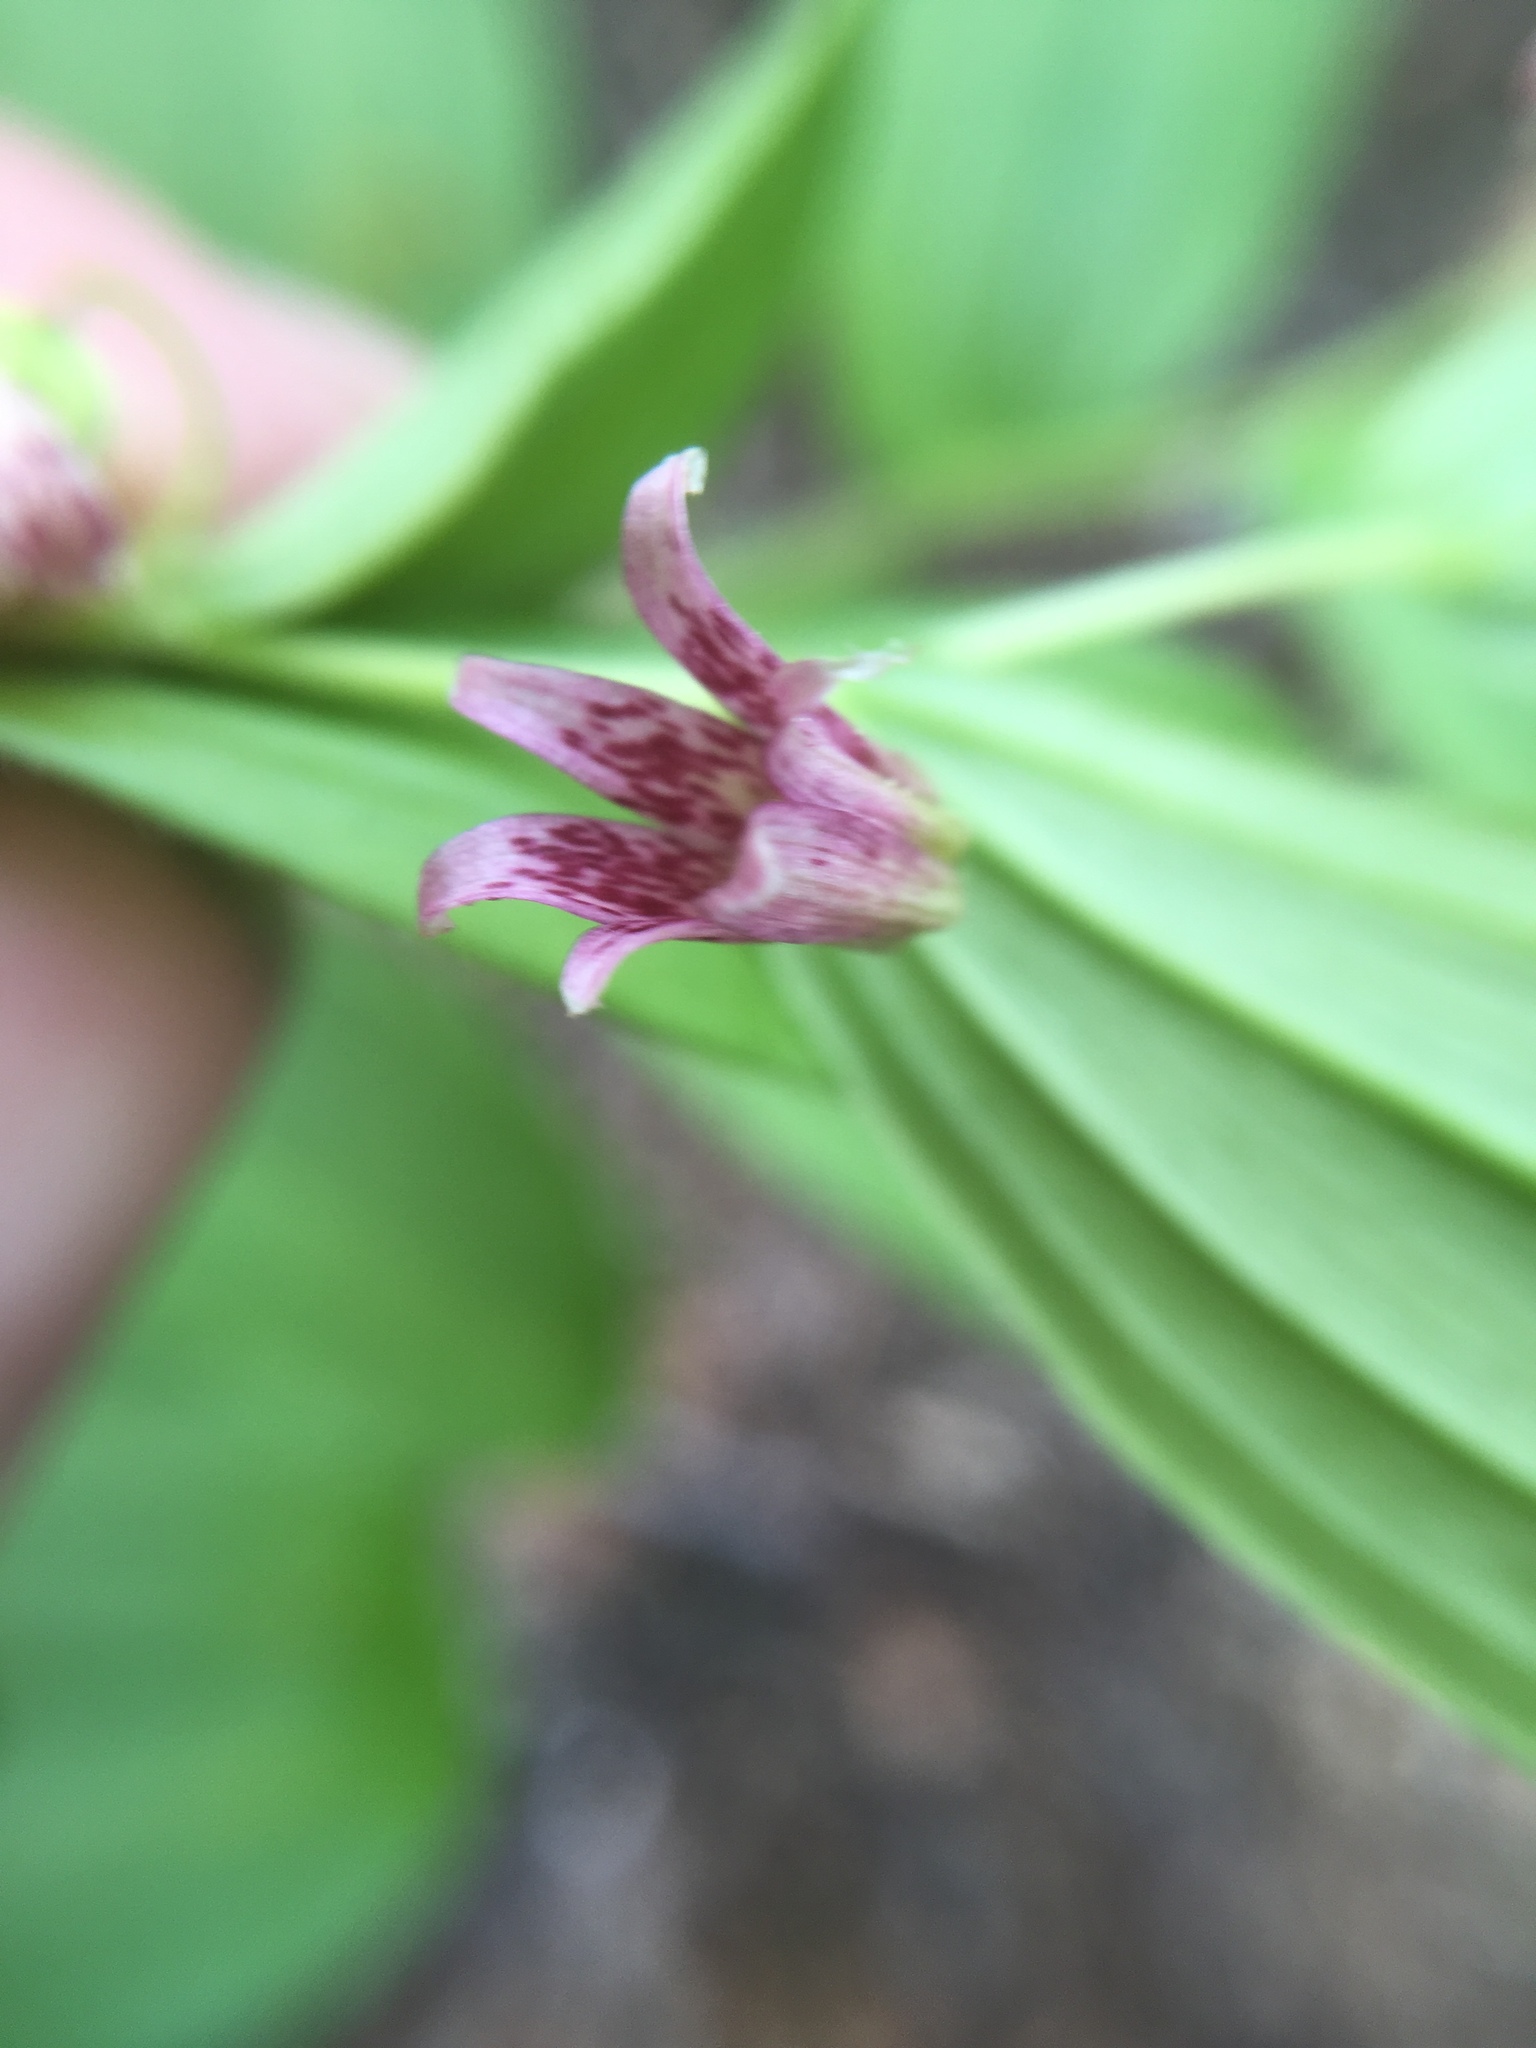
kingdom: Plantae
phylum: Tracheophyta
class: Liliopsida
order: Liliales
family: Liliaceae
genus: Streptopus
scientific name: Streptopus lanceolatus
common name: Rose mandarin
